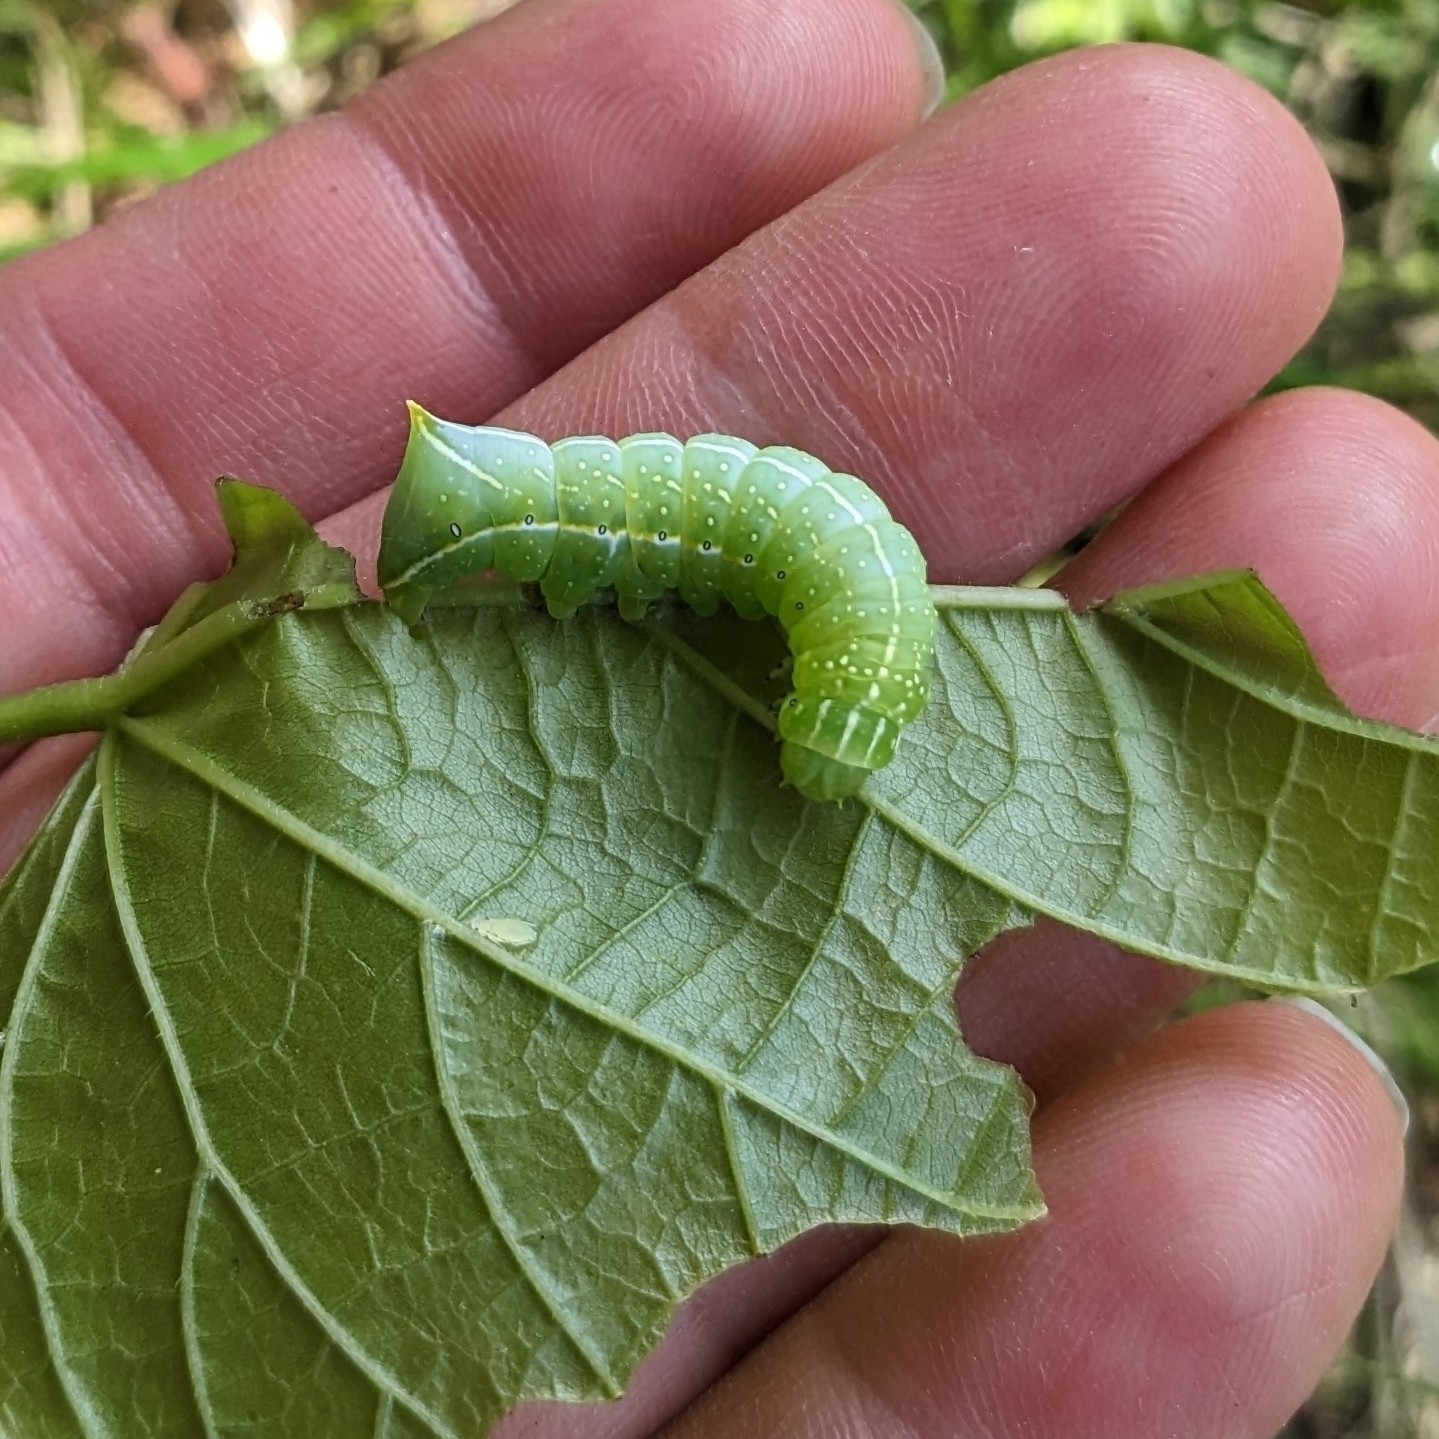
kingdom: Animalia
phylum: Arthropoda
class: Insecta
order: Lepidoptera
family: Noctuidae
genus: Amphipyra
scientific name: Amphipyra pyramidea
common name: Copper underwing
